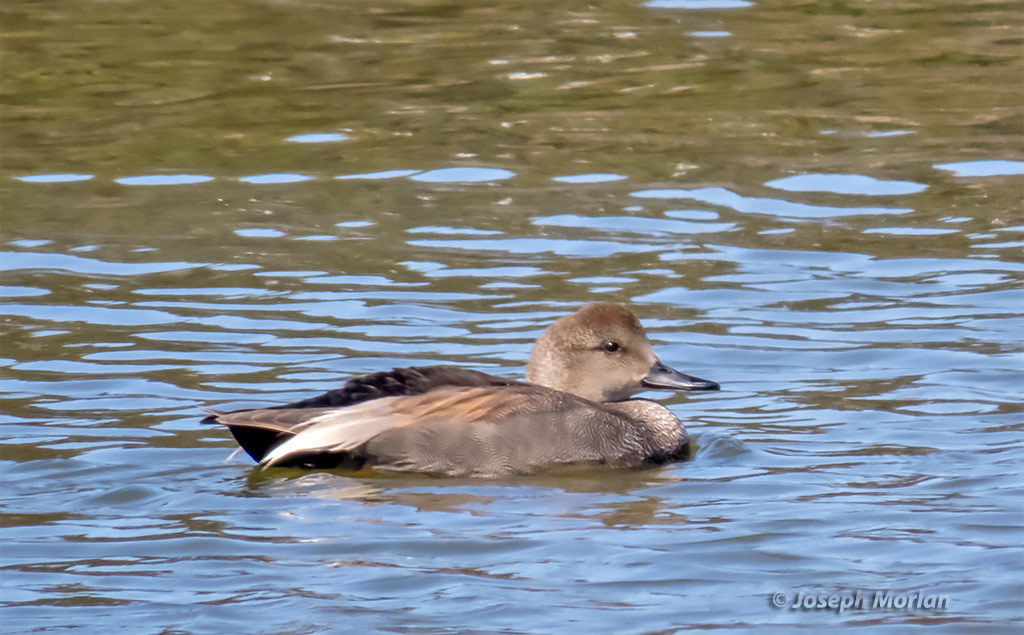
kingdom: Animalia
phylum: Chordata
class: Aves
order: Anseriformes
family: Anatidae
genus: Mareca
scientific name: Mareca strepera
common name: Gadwall
